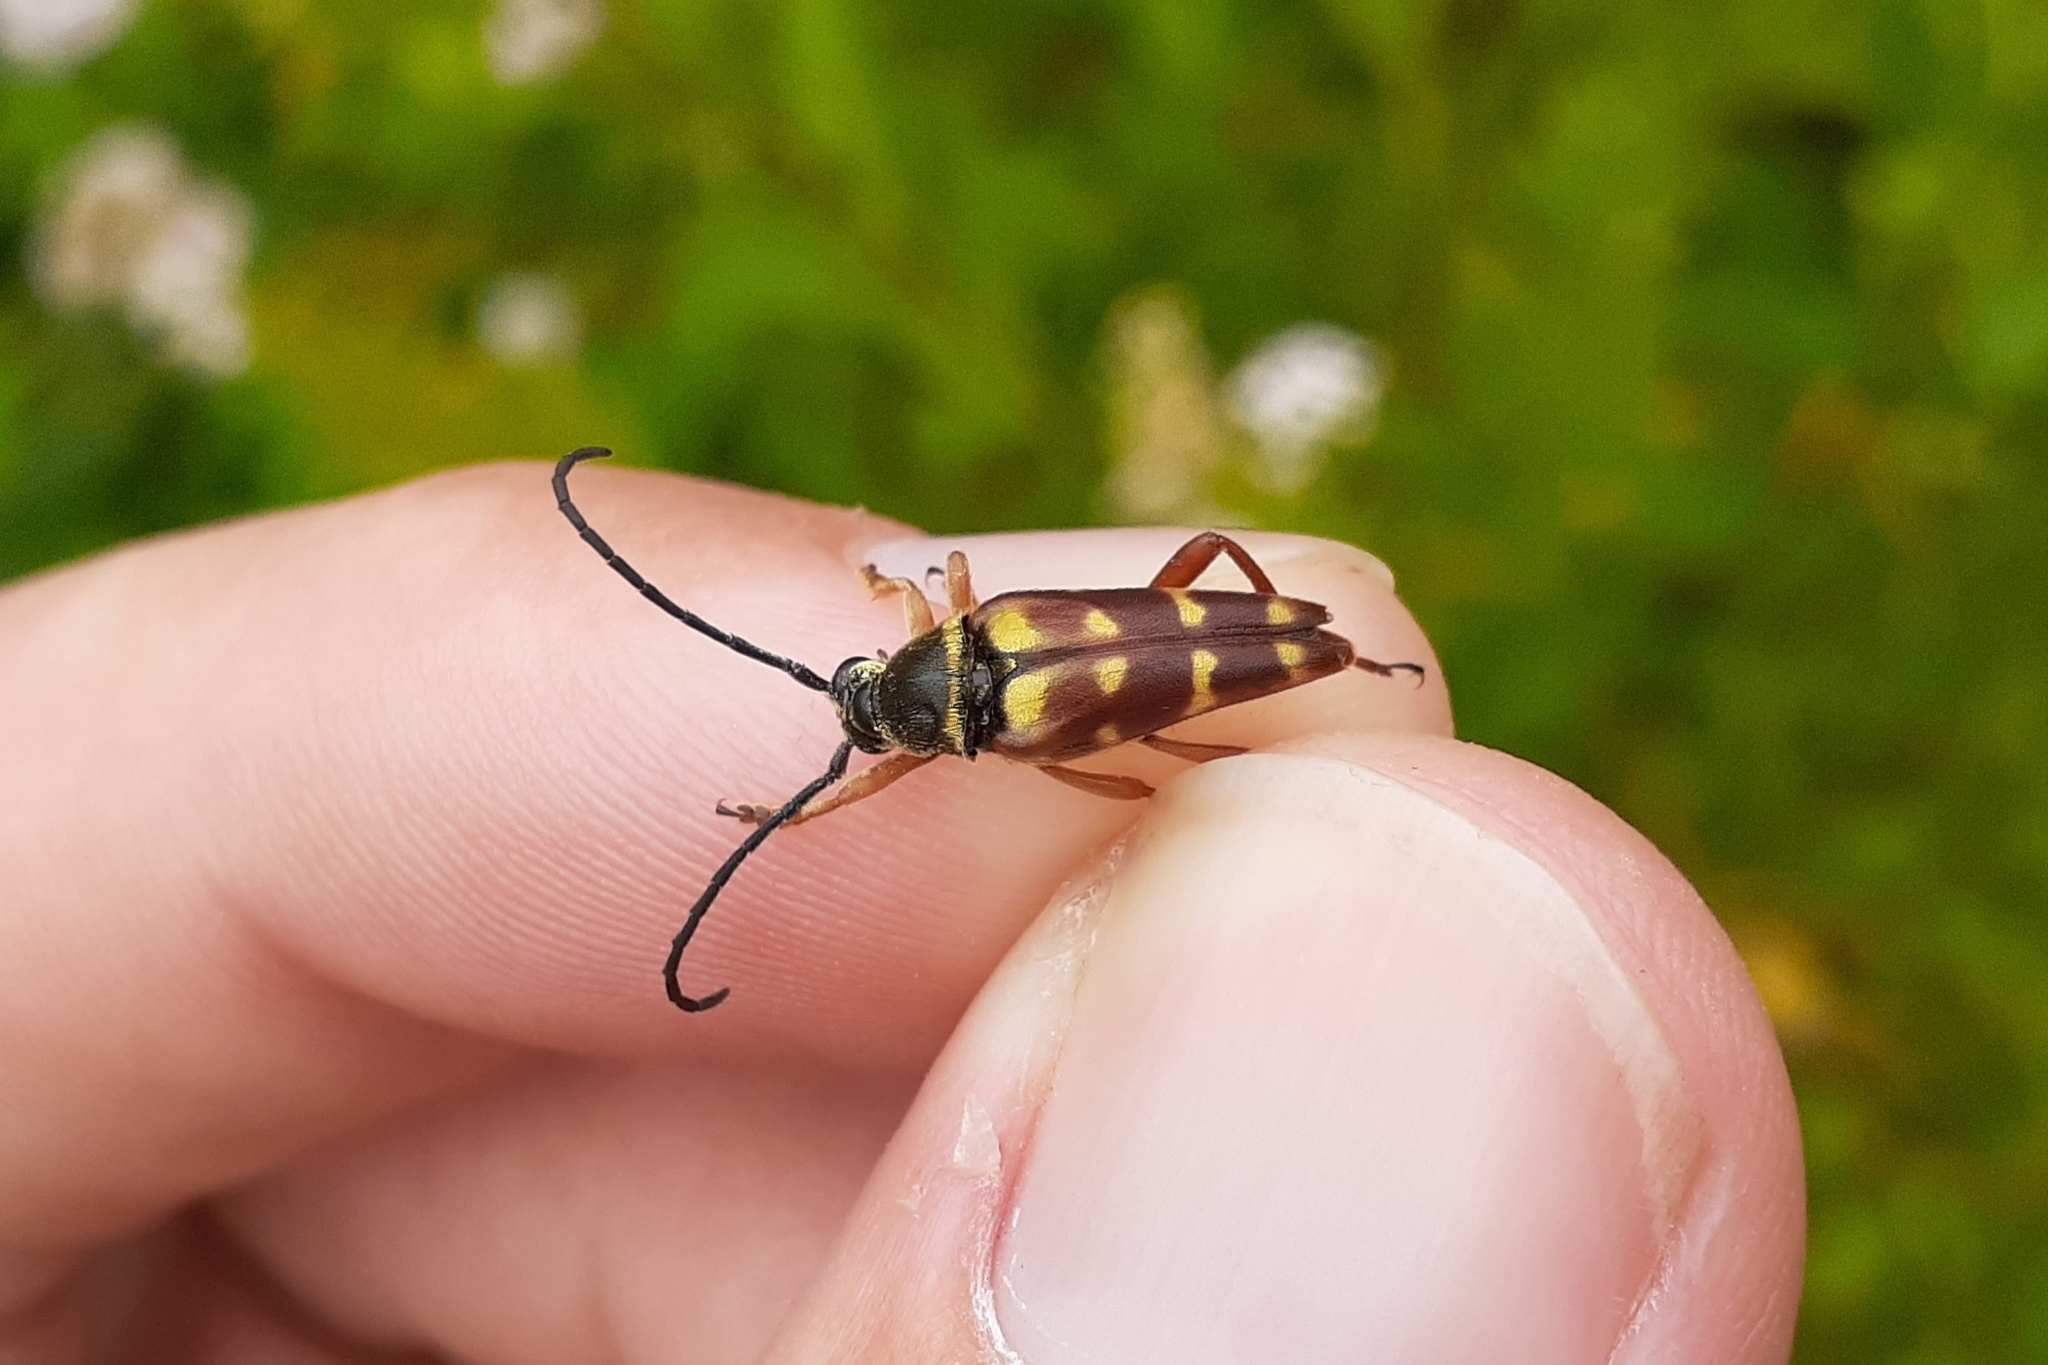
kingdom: Animalia
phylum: Arthropoda
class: Insecta
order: Coleoptera
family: Cerambycidae
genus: Typocerus
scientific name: Typocerus velutinus
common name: Banded longhorn beetle
